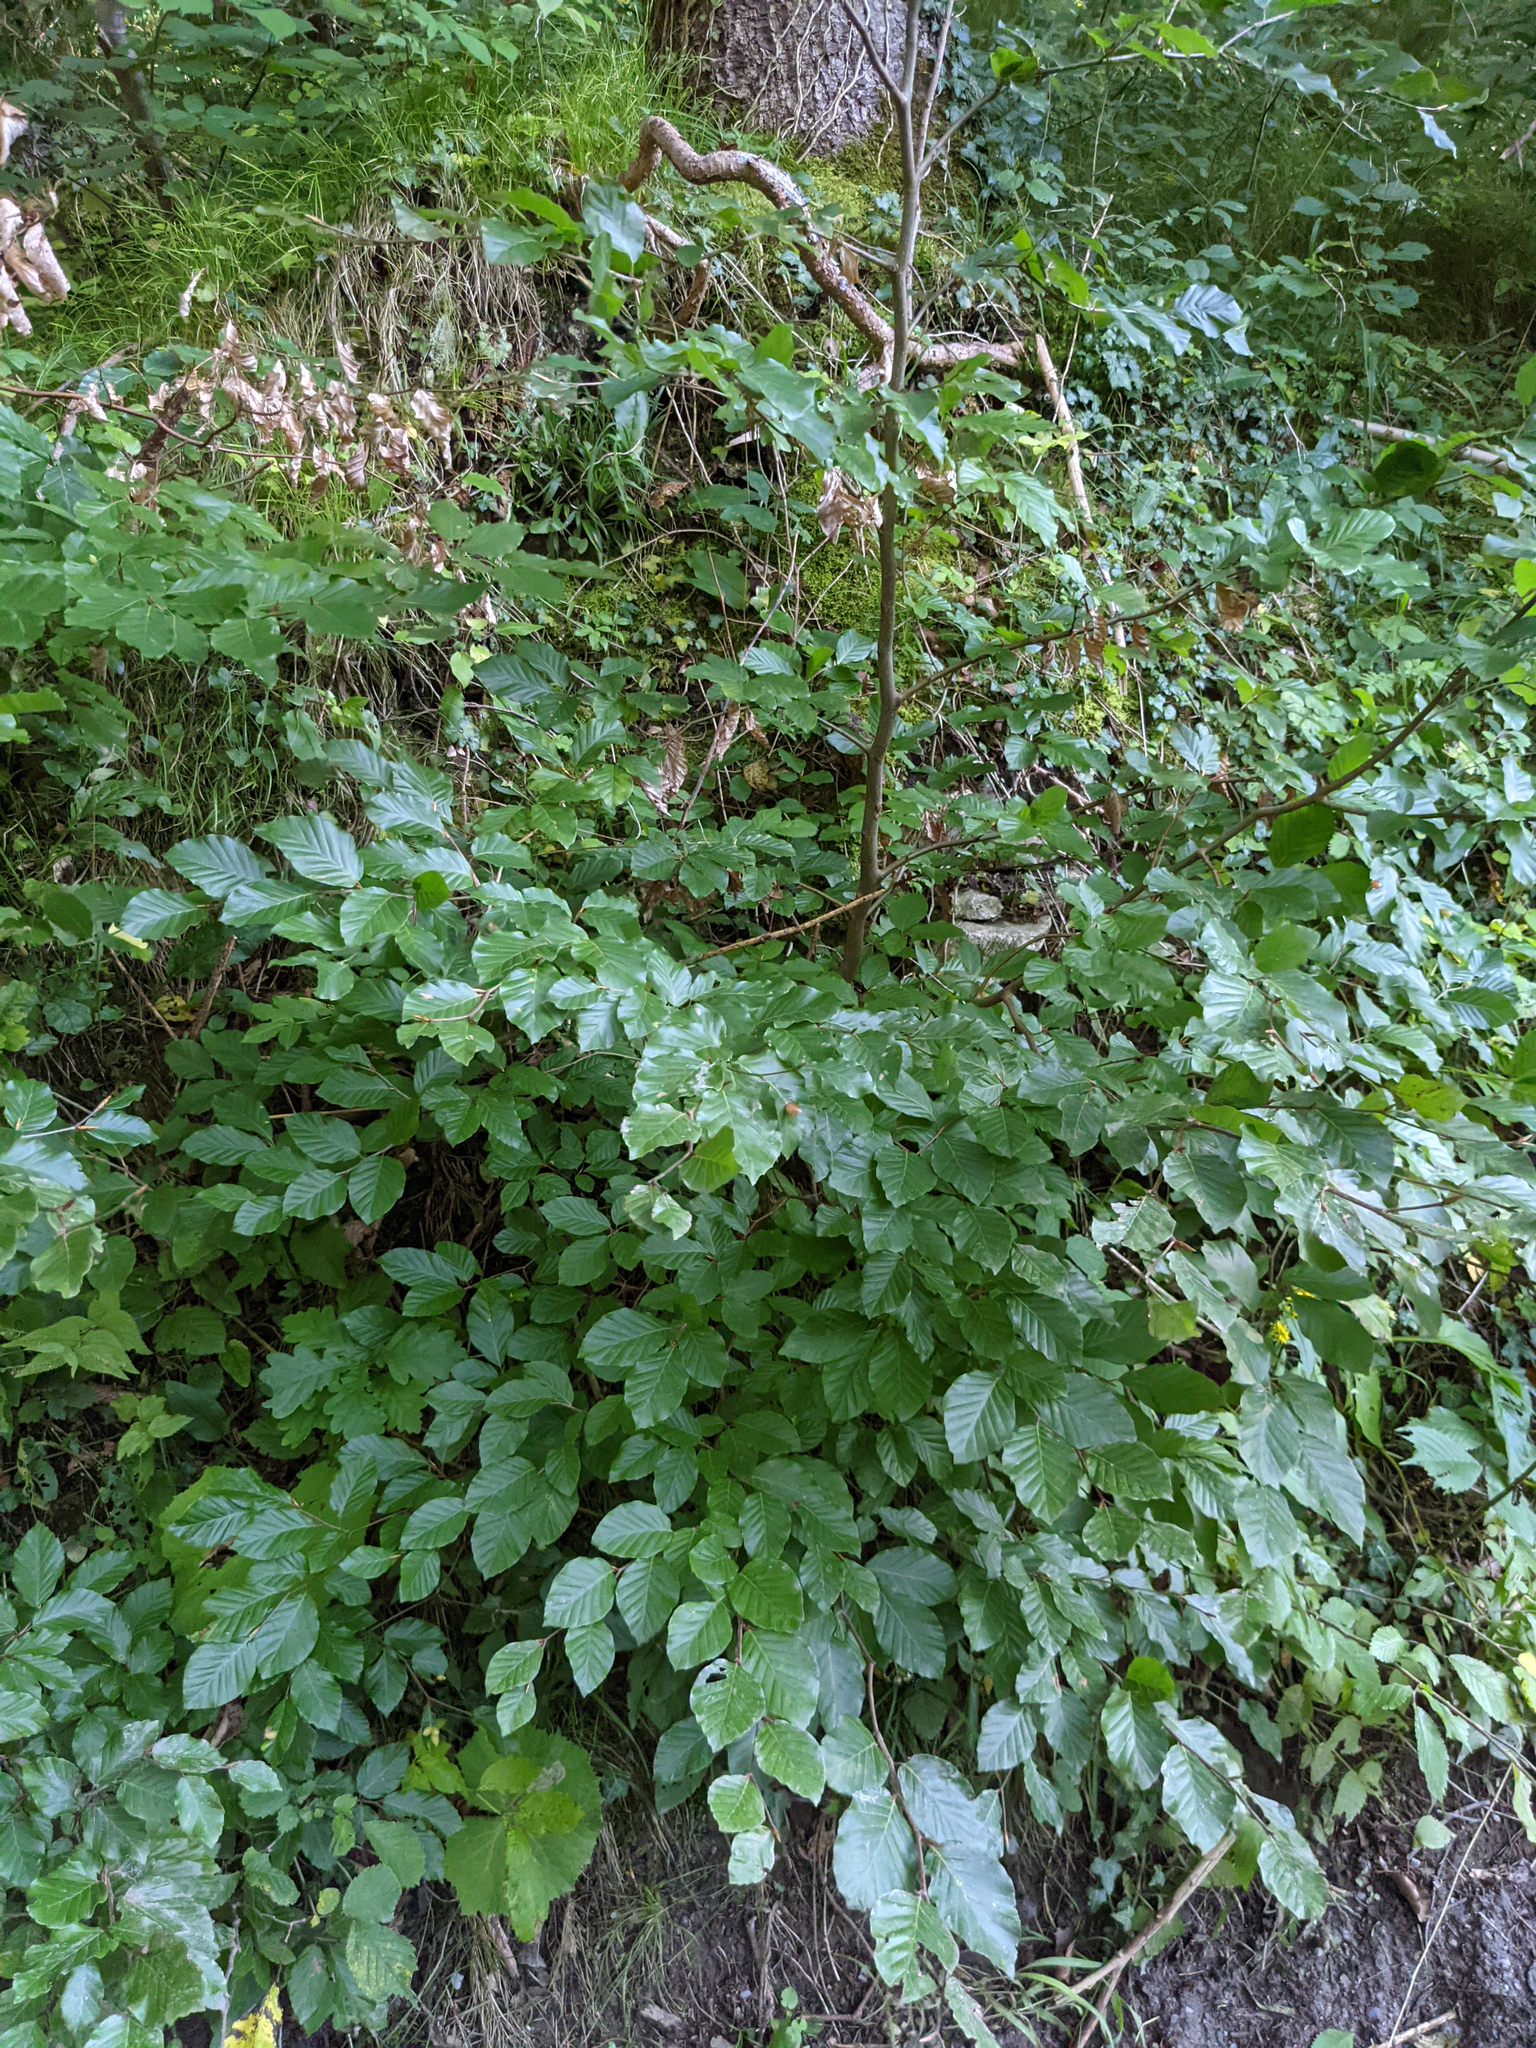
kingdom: Plantae
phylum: Tracheophyta
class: Magnoliopsida
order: Fagales
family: Fagaceae
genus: Fagus
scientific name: Fagus sylvatica
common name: Beech
